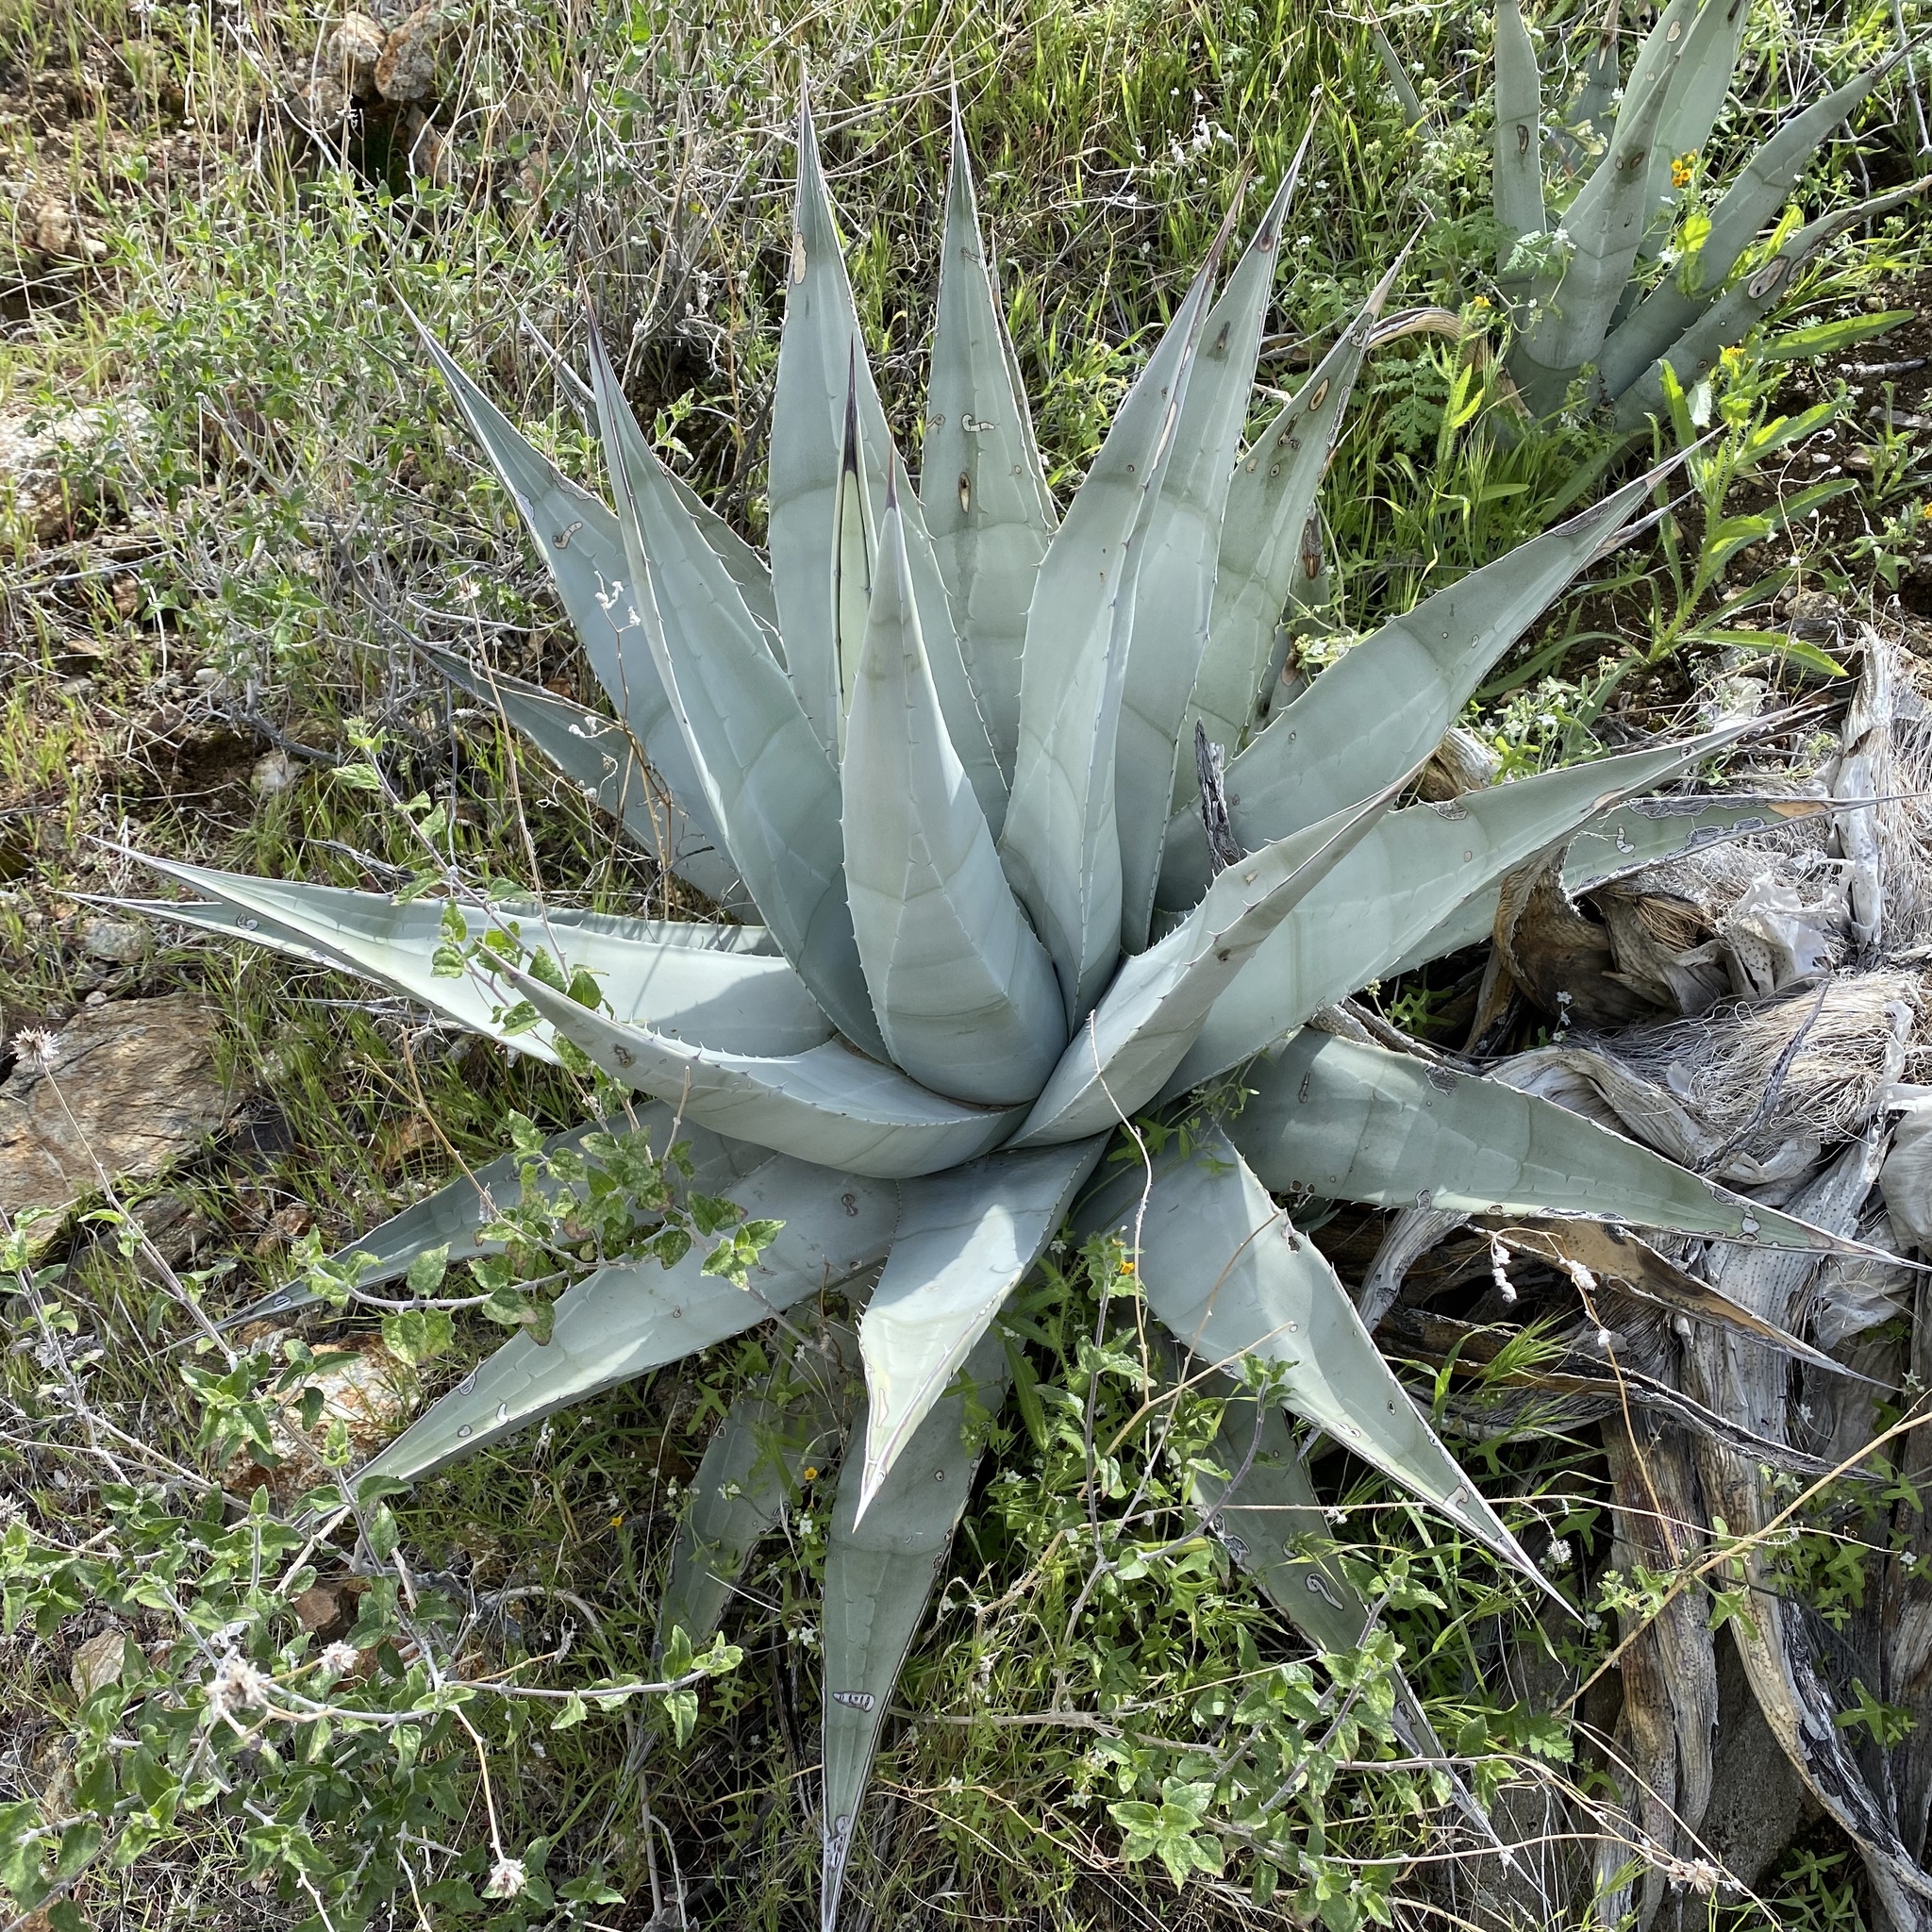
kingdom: Plantae
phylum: Tracheophyta
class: Liliopsida
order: Asparagales
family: Asparagaceae
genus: Agave
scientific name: Agave deserti
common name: Desert agave
